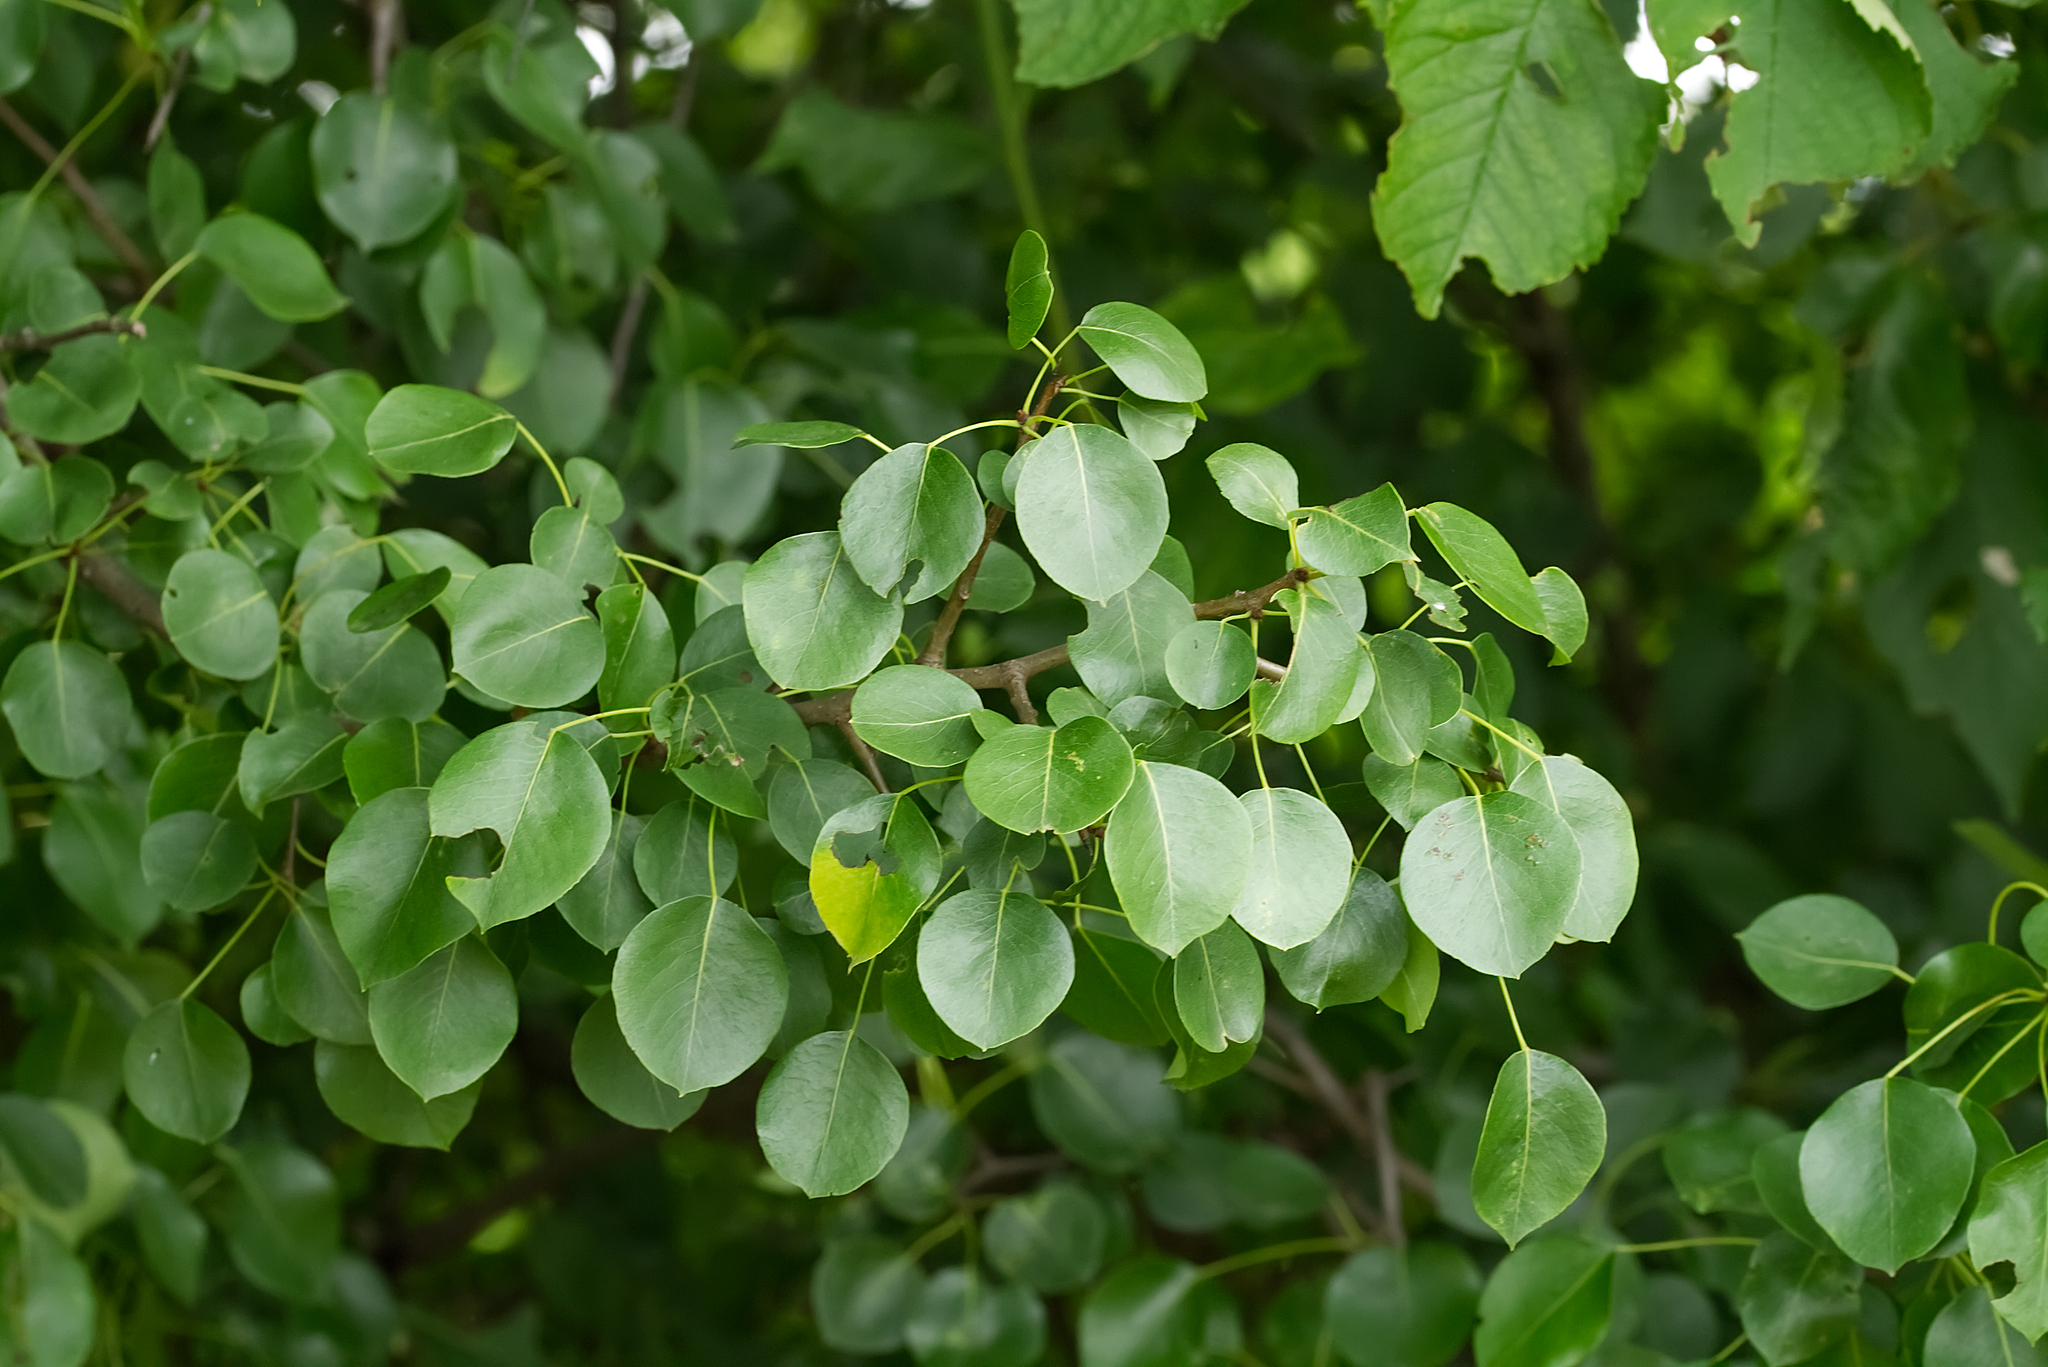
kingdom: Plantae
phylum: Tracheophyta
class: Magnoliopsida
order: Rosales
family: Rosaceae
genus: Pyrus
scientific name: Pyrus communis
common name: Pear
